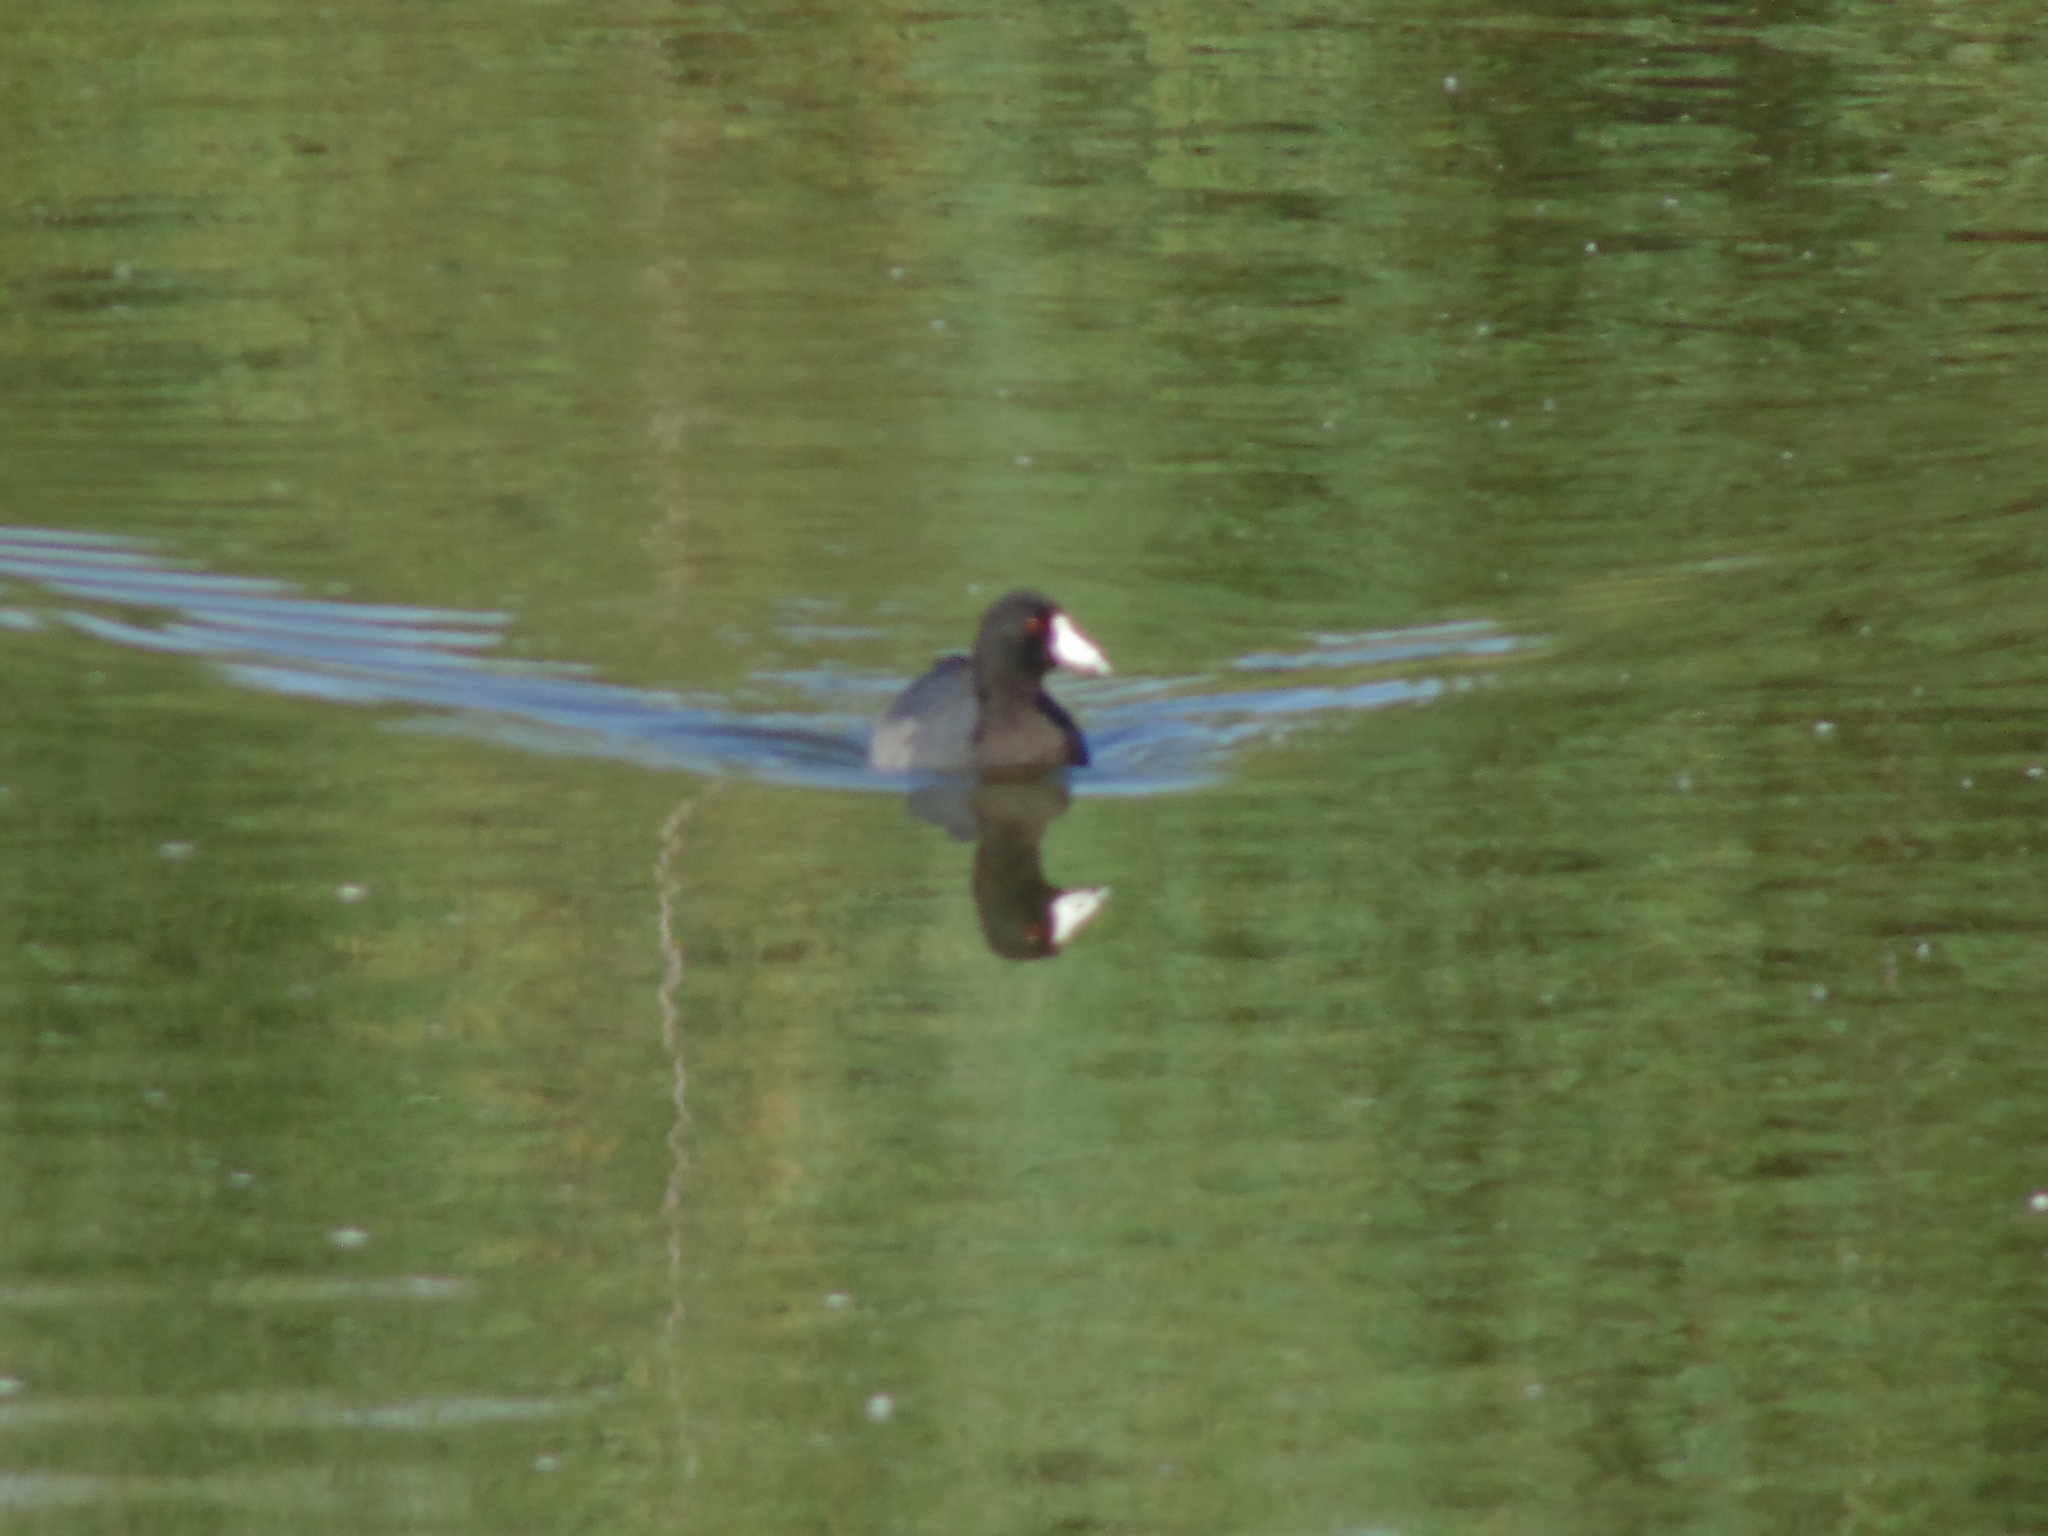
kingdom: Animalia
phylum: Chordata
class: Aves
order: Gruiformes
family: Rallidae
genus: Fulica
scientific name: Fulica americana
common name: American coot
